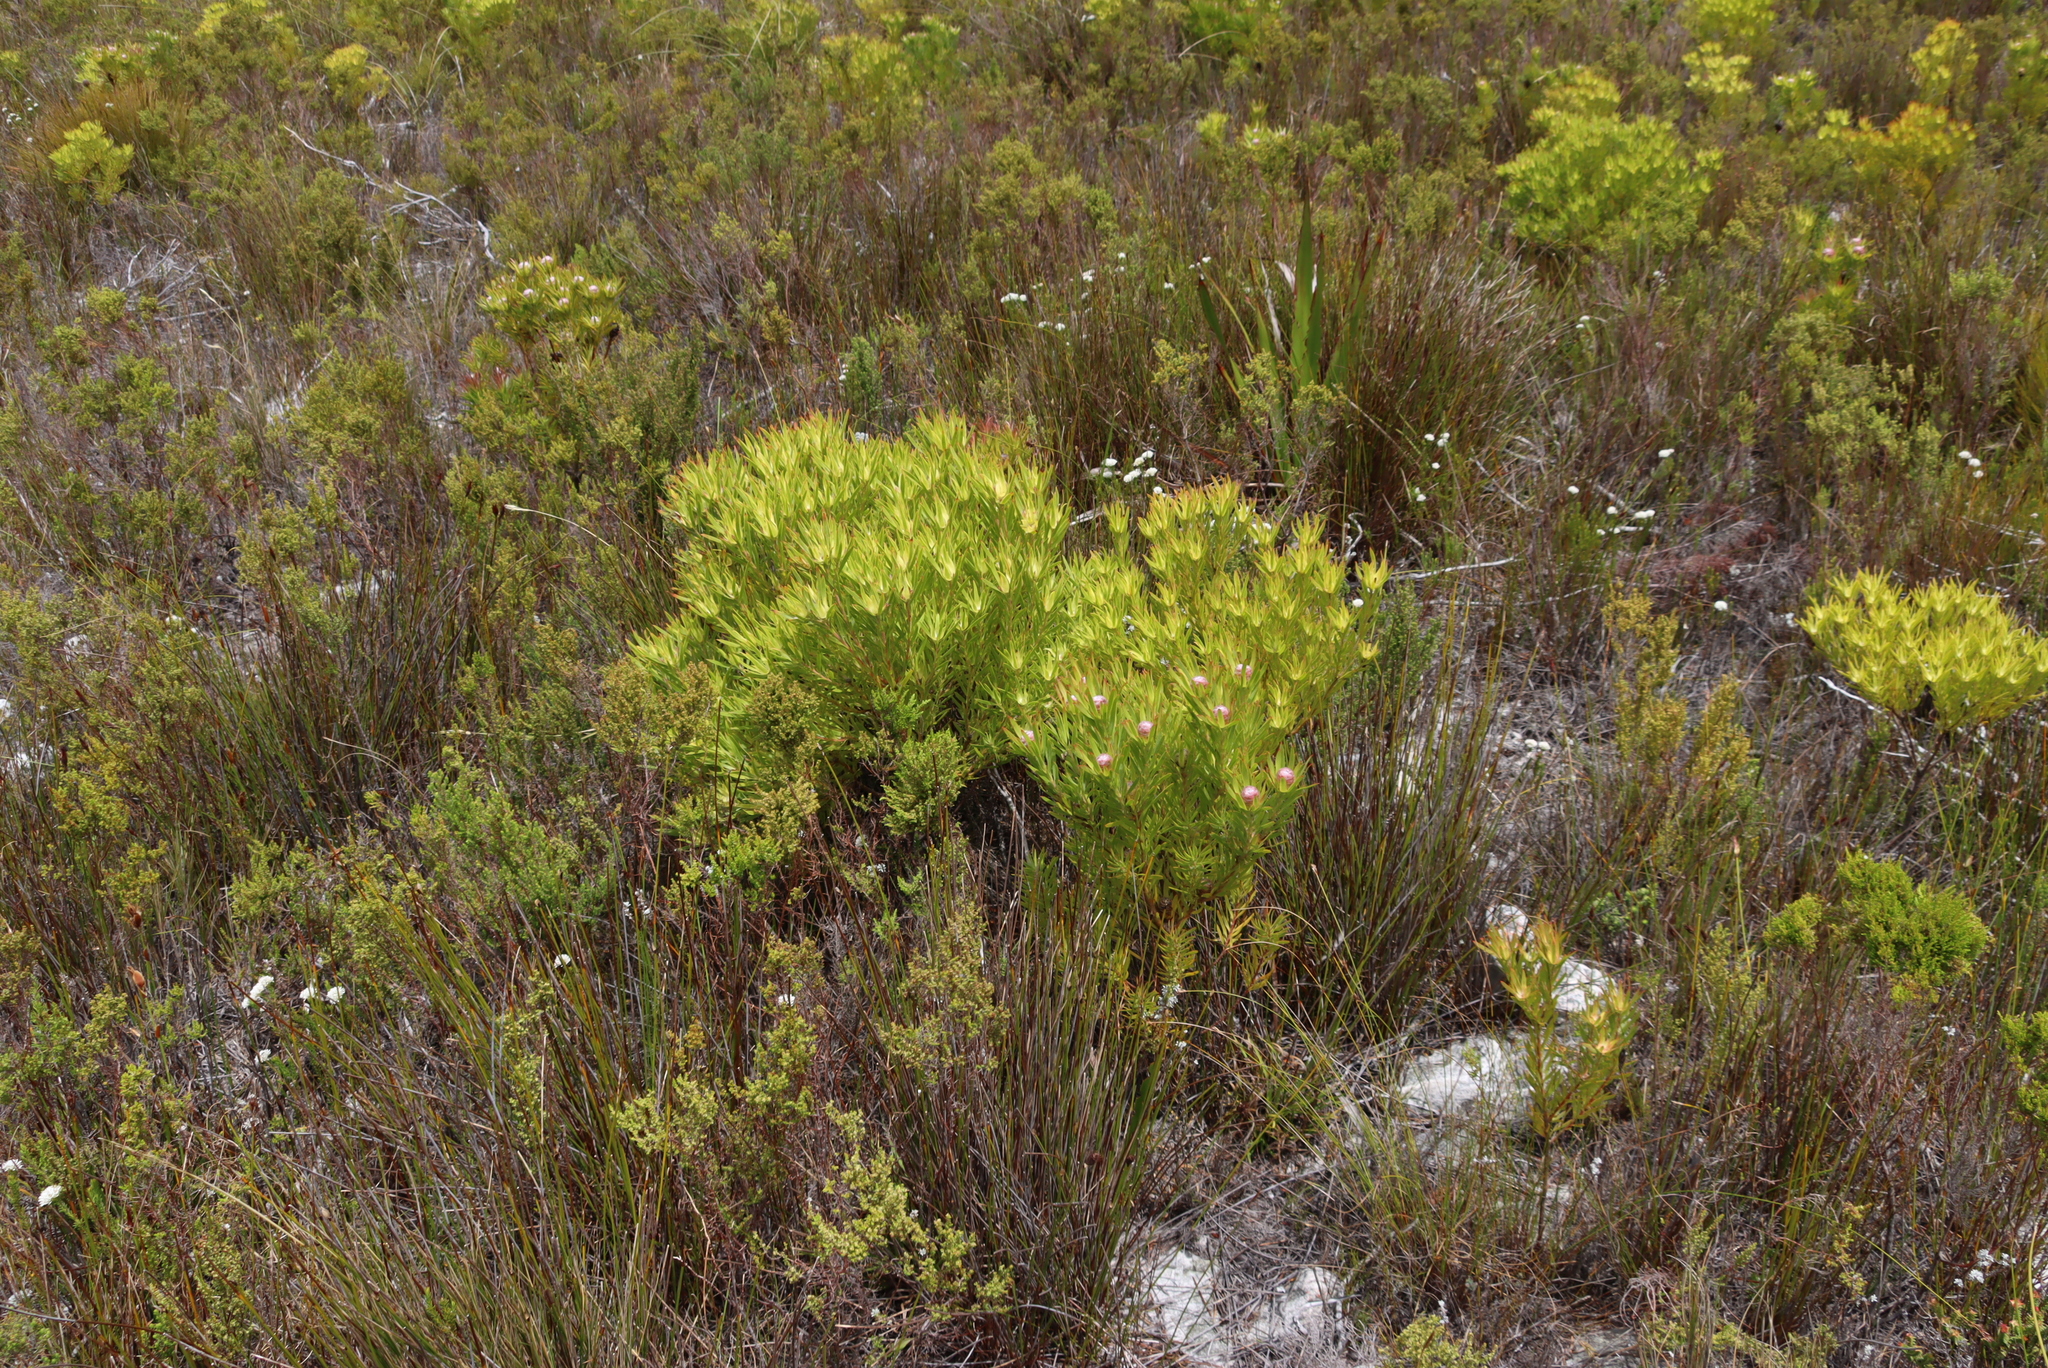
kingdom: Plantae
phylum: Tracheophyta
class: Magnoliopsida
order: Proteales
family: Proteaceae
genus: Leucadendron
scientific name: Leucadendron xanthoconus
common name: Sickle-leaf conebush
